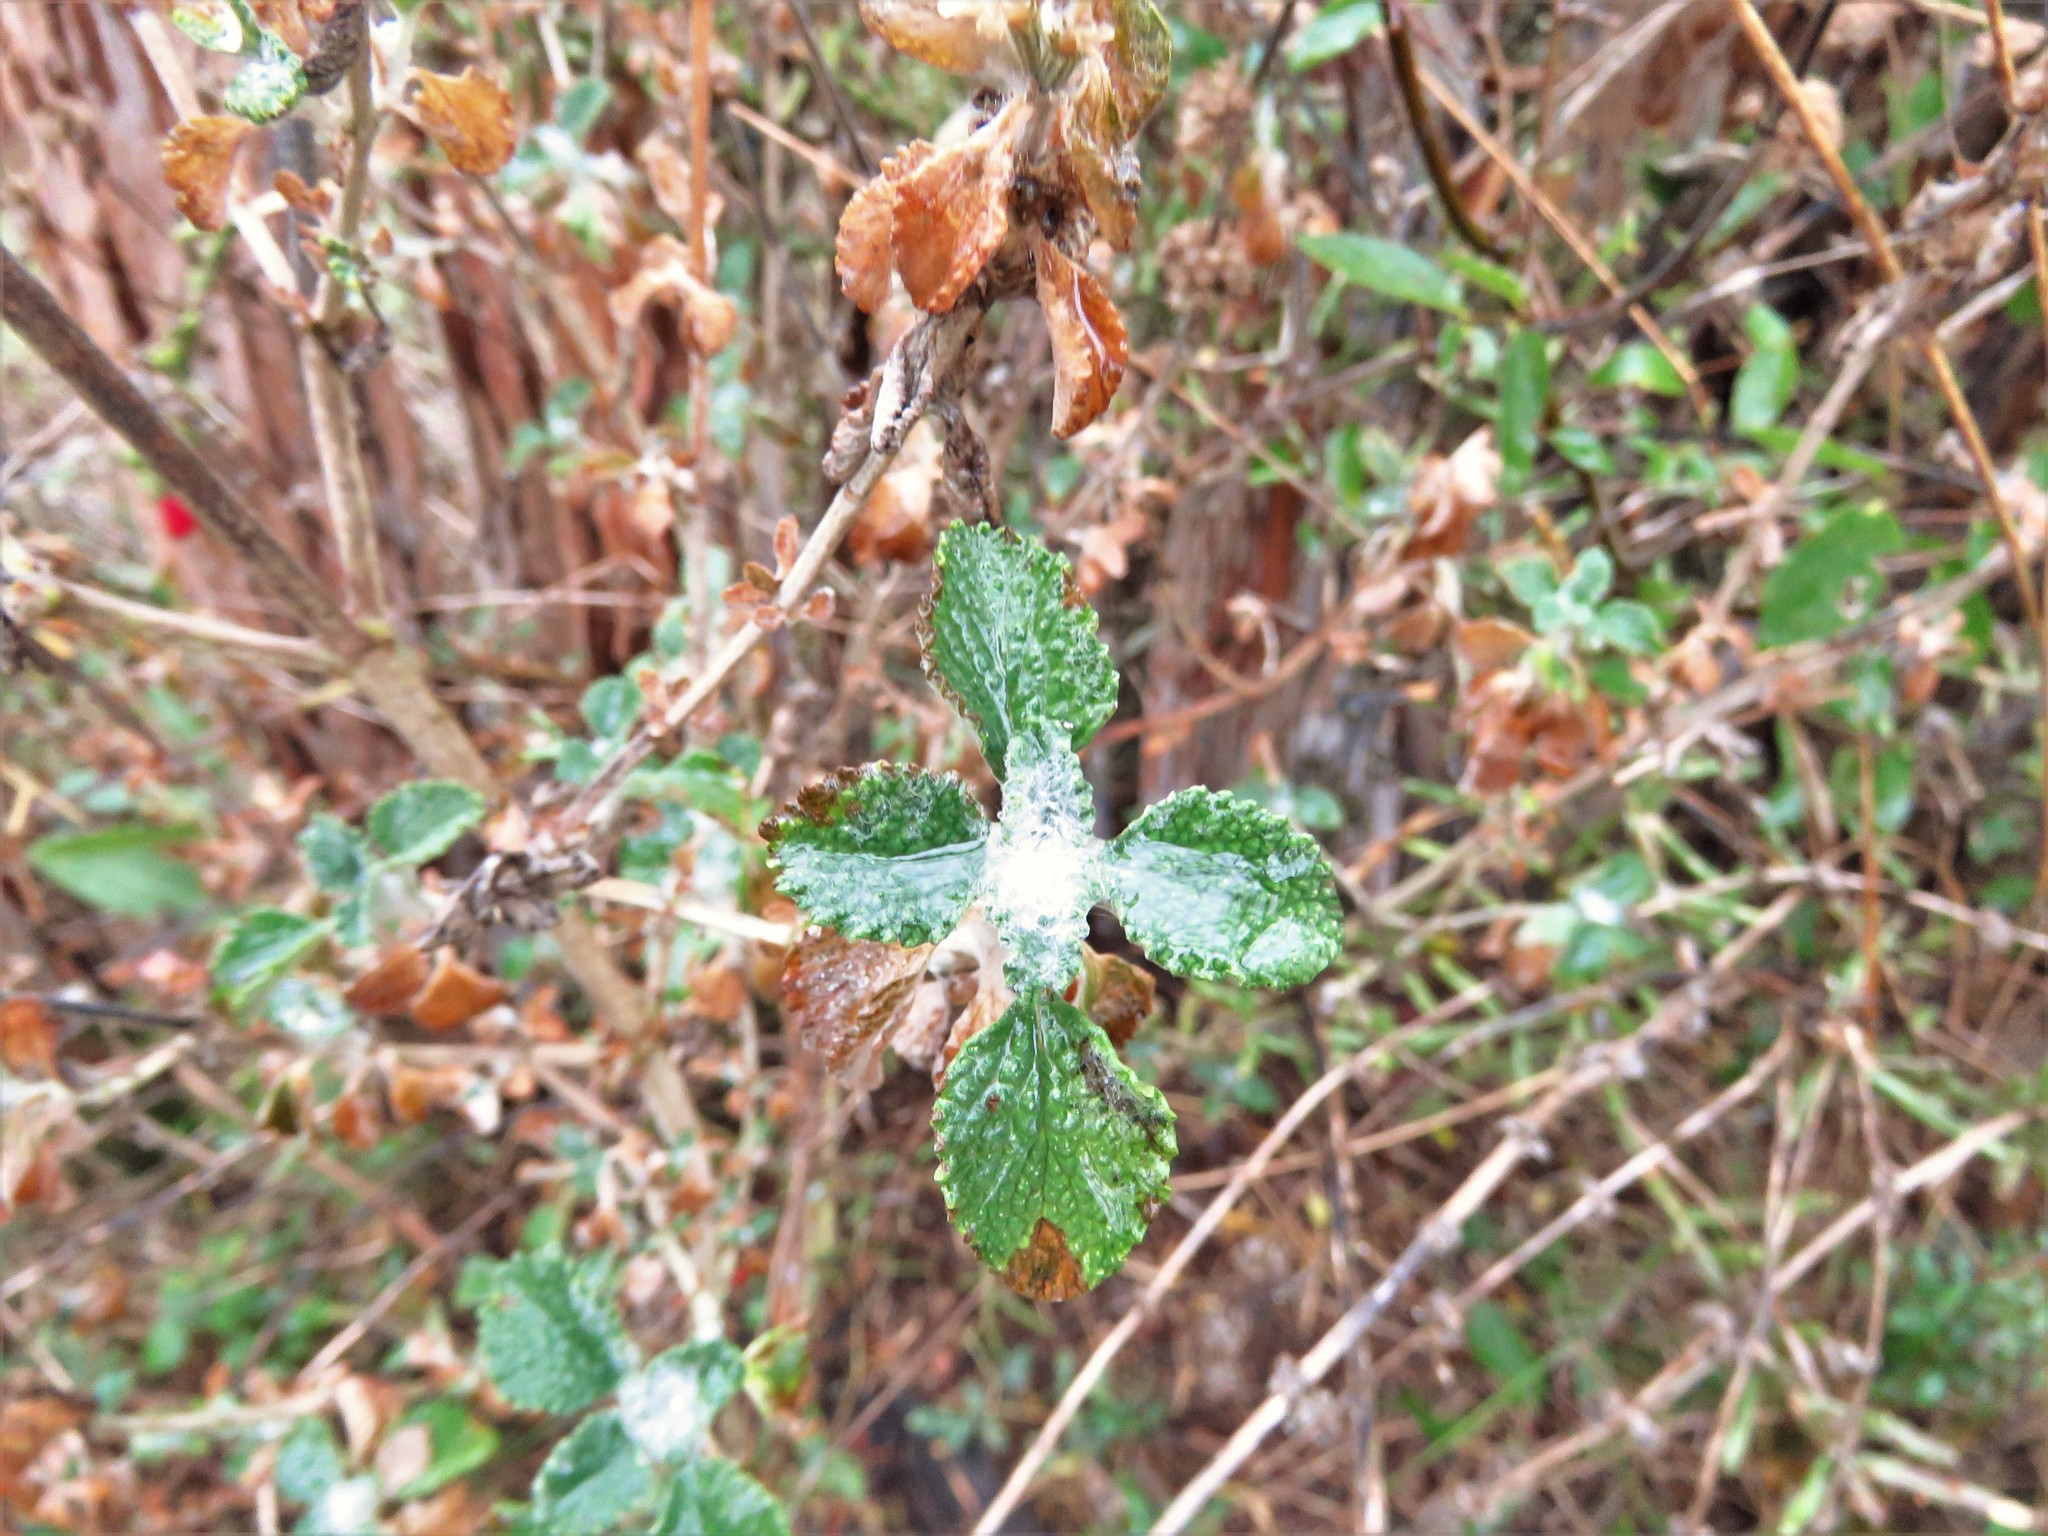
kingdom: Plantae
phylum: Tracheophyta
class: Magnoliopsida
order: Lamiales
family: Lamiaceae
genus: Marrubium
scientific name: Marrubium vulgare
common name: Horehound
